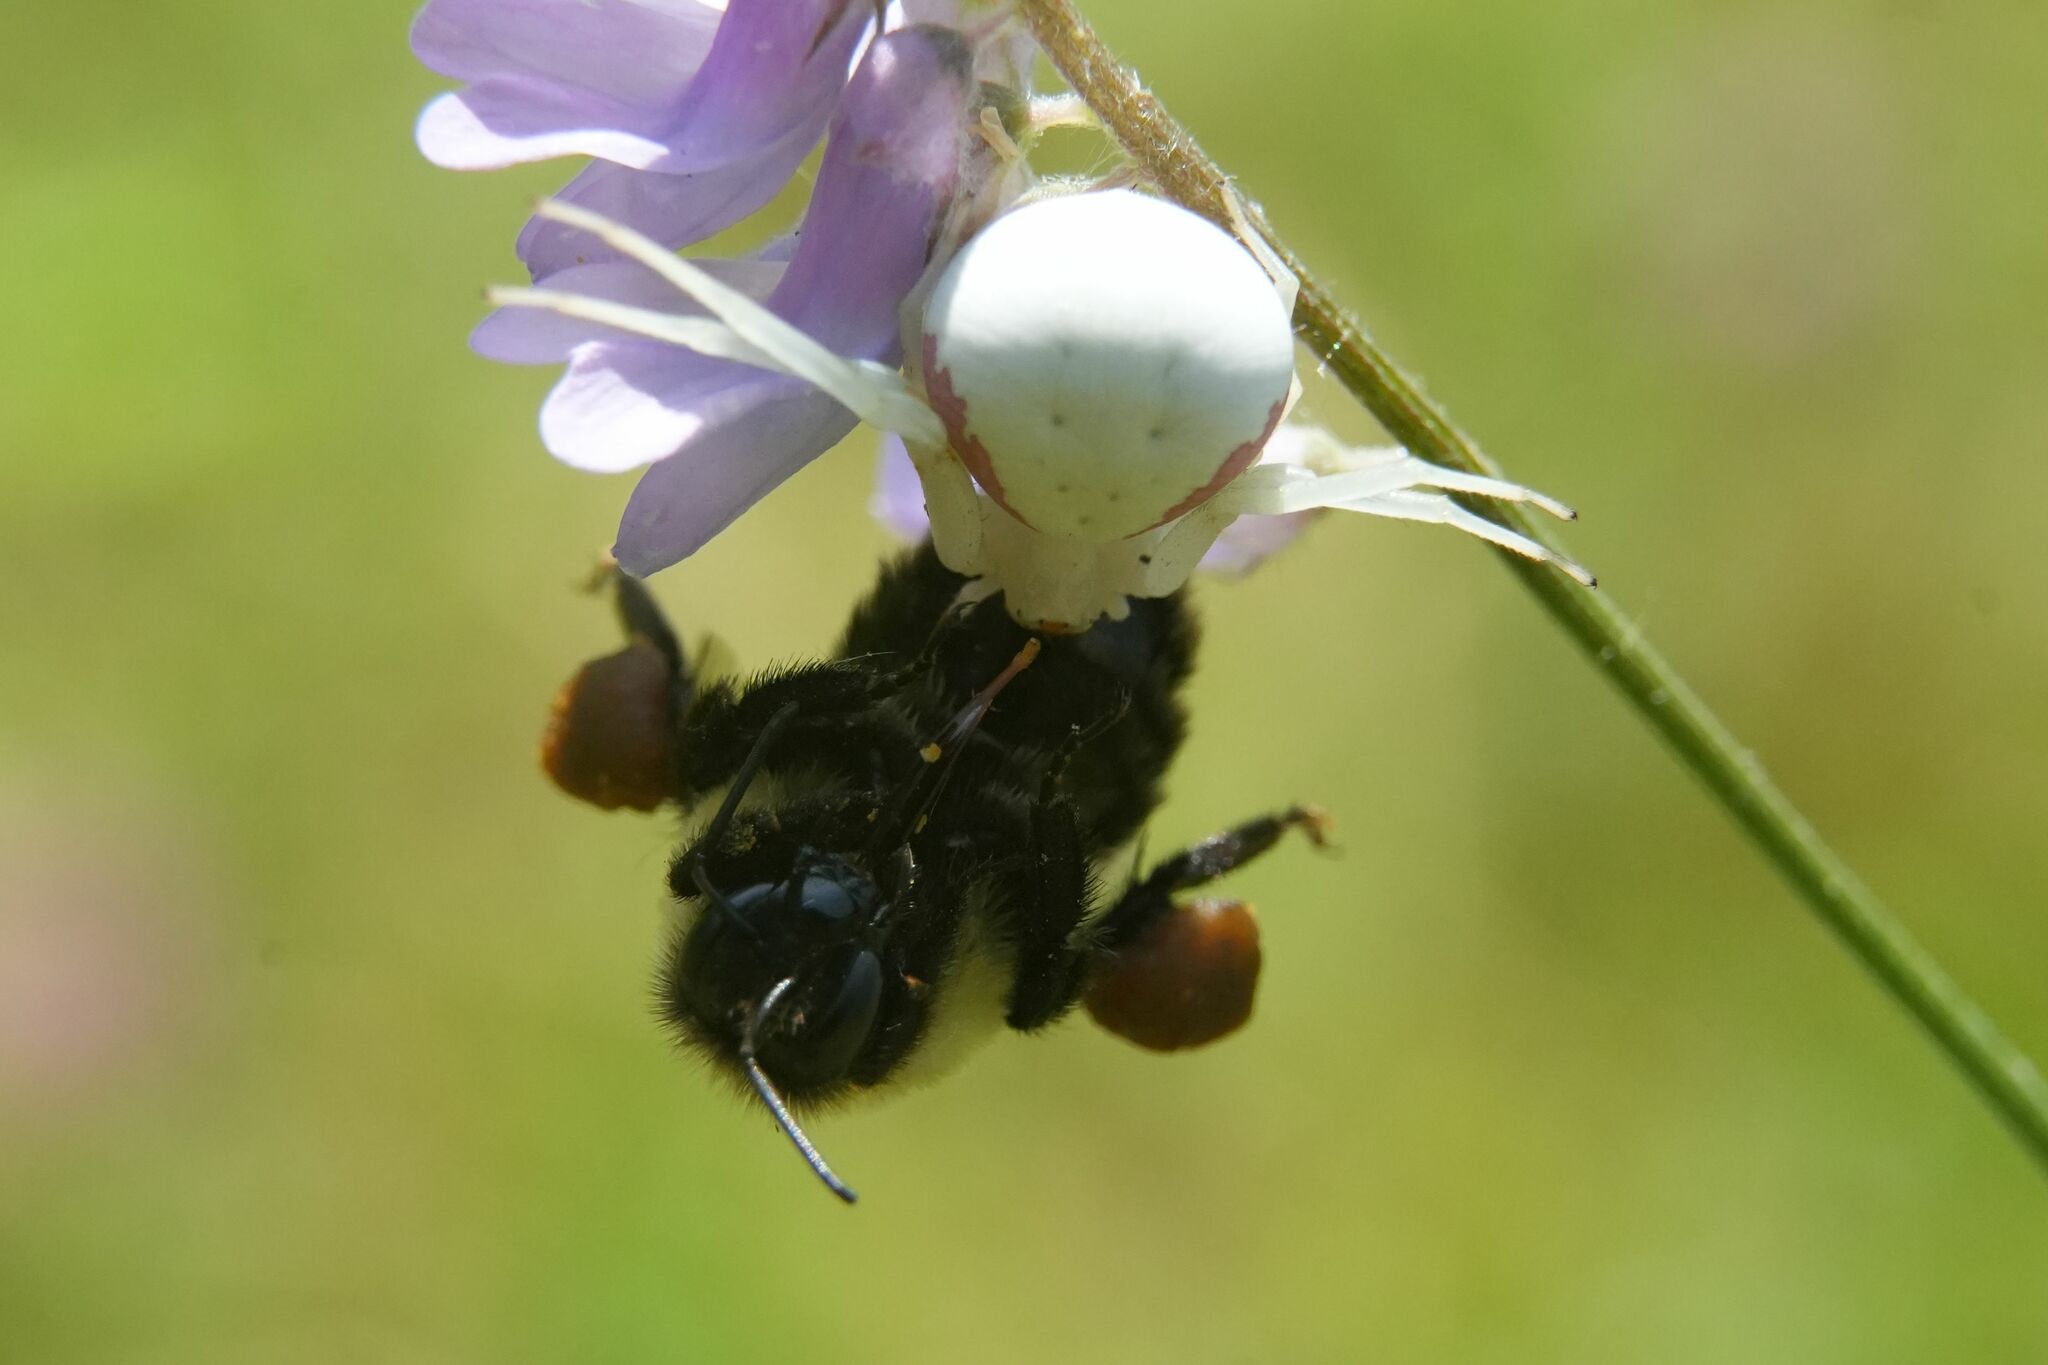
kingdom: Animalia
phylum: Arthropoda
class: Arachnida
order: Araneae
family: Thomisidae
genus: Misumena
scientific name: Misumena vatia
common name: Goldenrod crab spider
